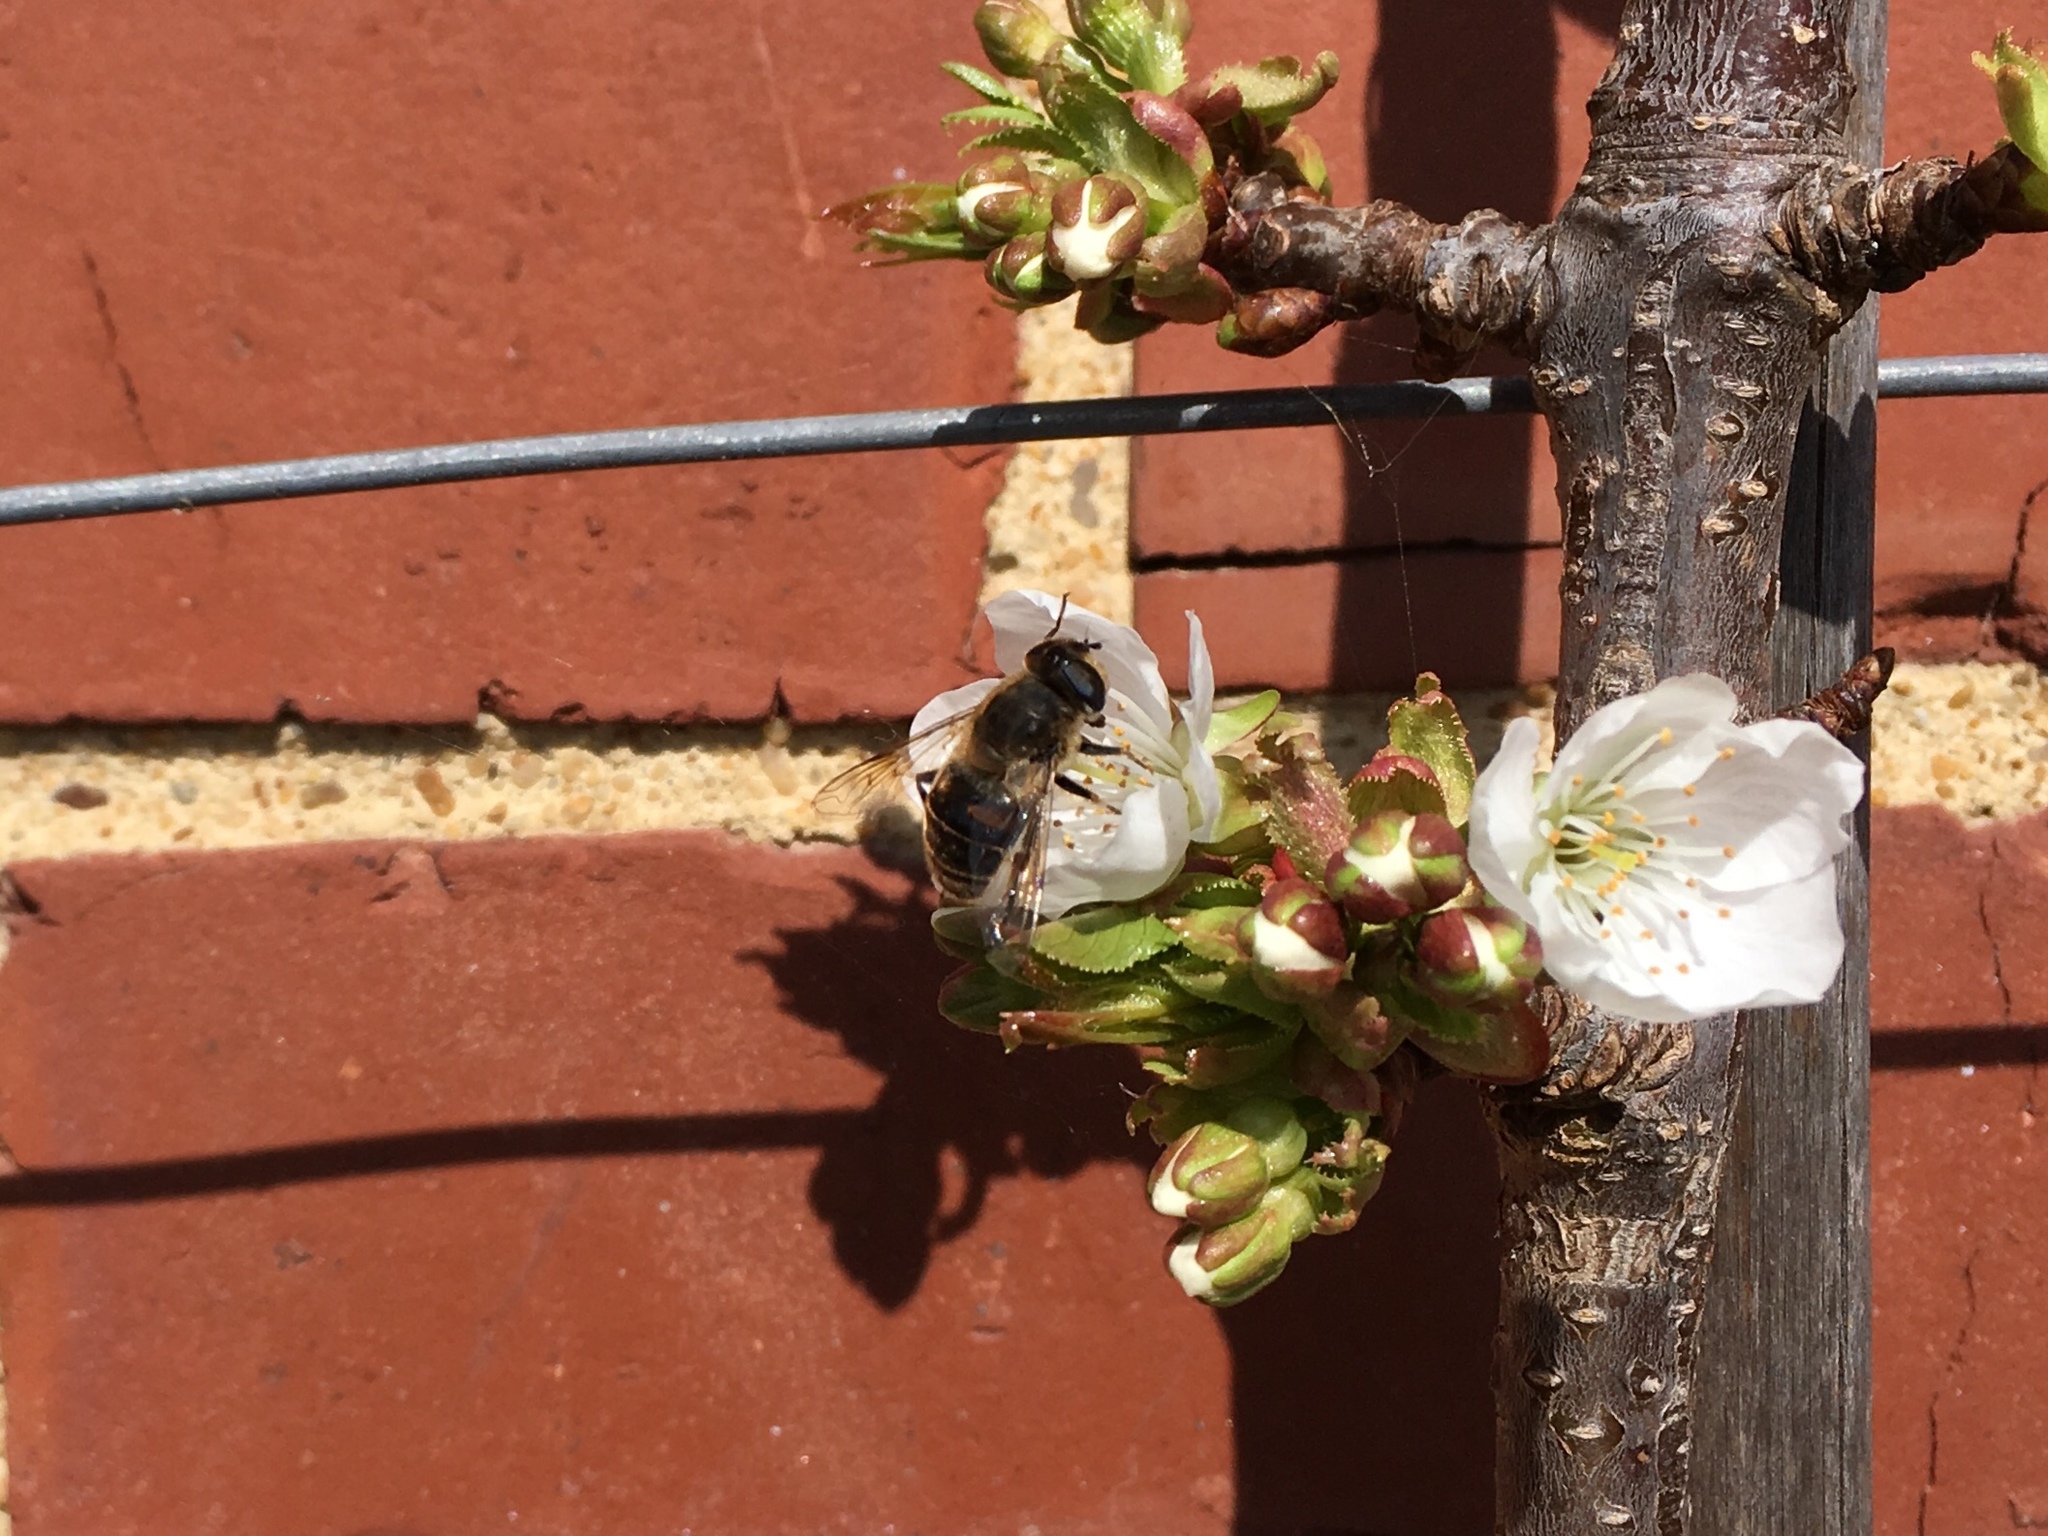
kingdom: Animalia
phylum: Arthropoda
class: Insecta
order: Diptera
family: Syrphidae
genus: Eristalis
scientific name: Eristalis tenax
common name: Drone fly
